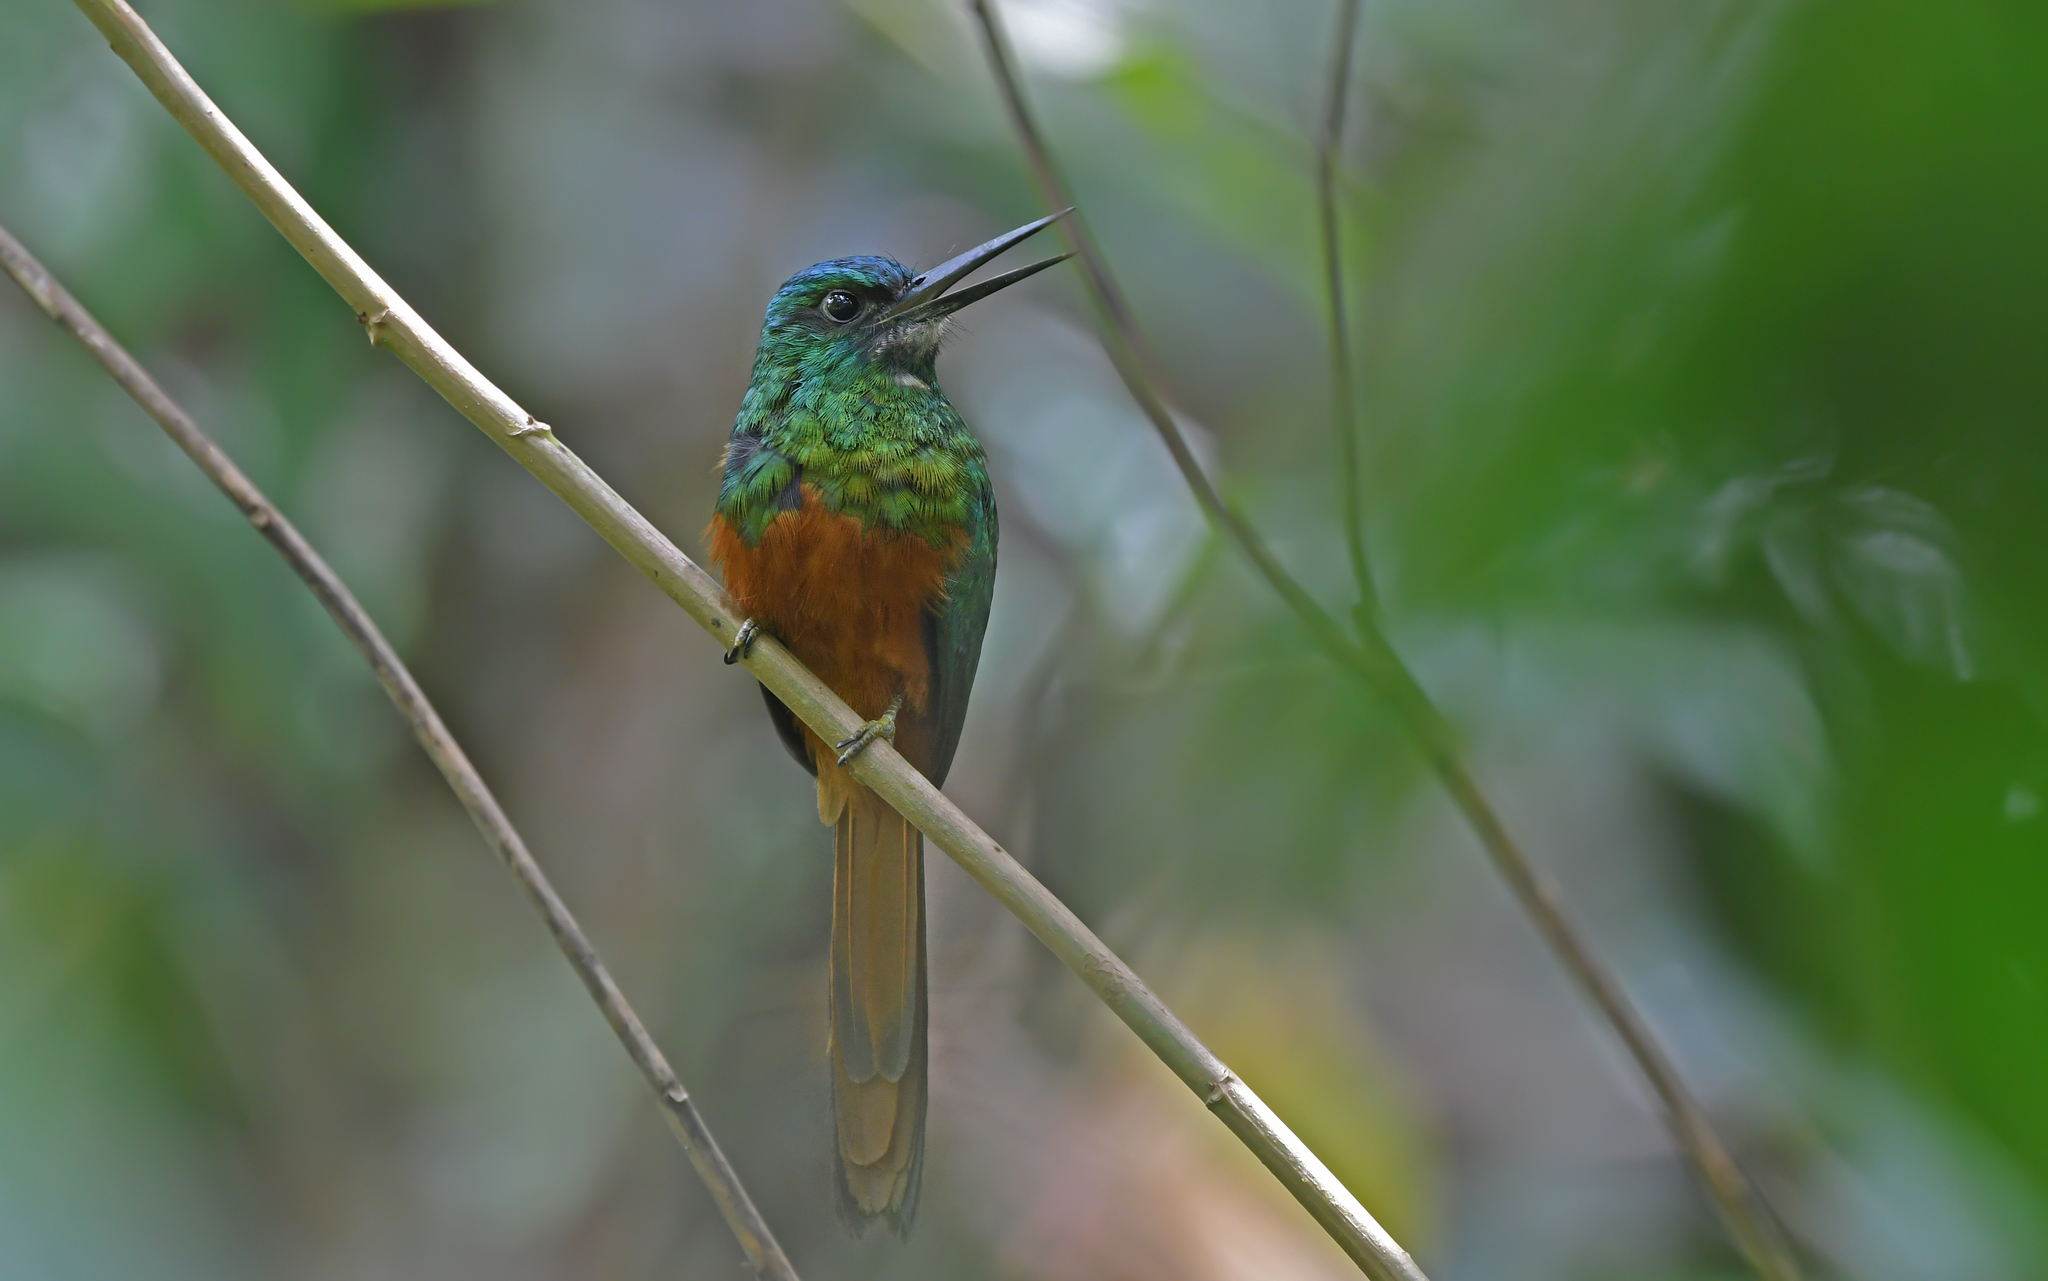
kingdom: Animalia
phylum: Chordata
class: Aves
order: Piciformes
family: Galbulidae
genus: Galbula
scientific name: Galbula cyanescens
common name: Bluish-fronted jacamar
